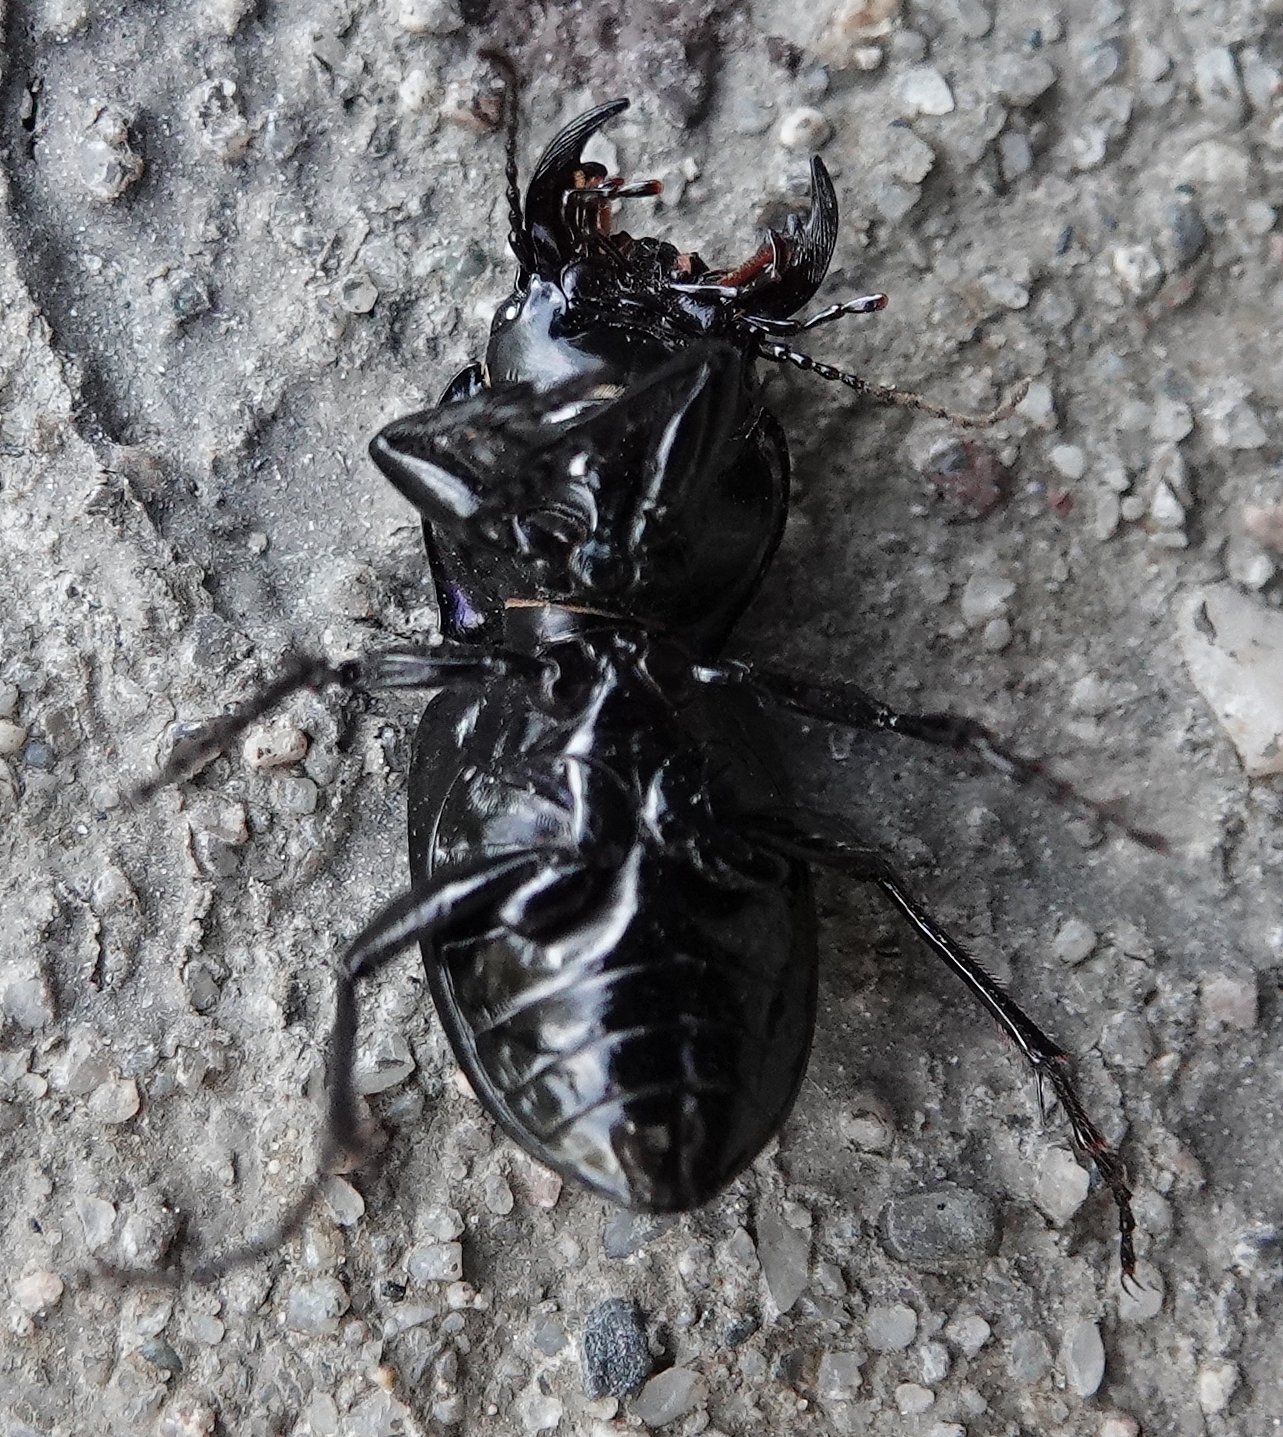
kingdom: Animalia
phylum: Arthropoda
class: Insecta
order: Coleoptera
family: Carabidae
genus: Pasimachus
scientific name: Pasimachus elongatus
